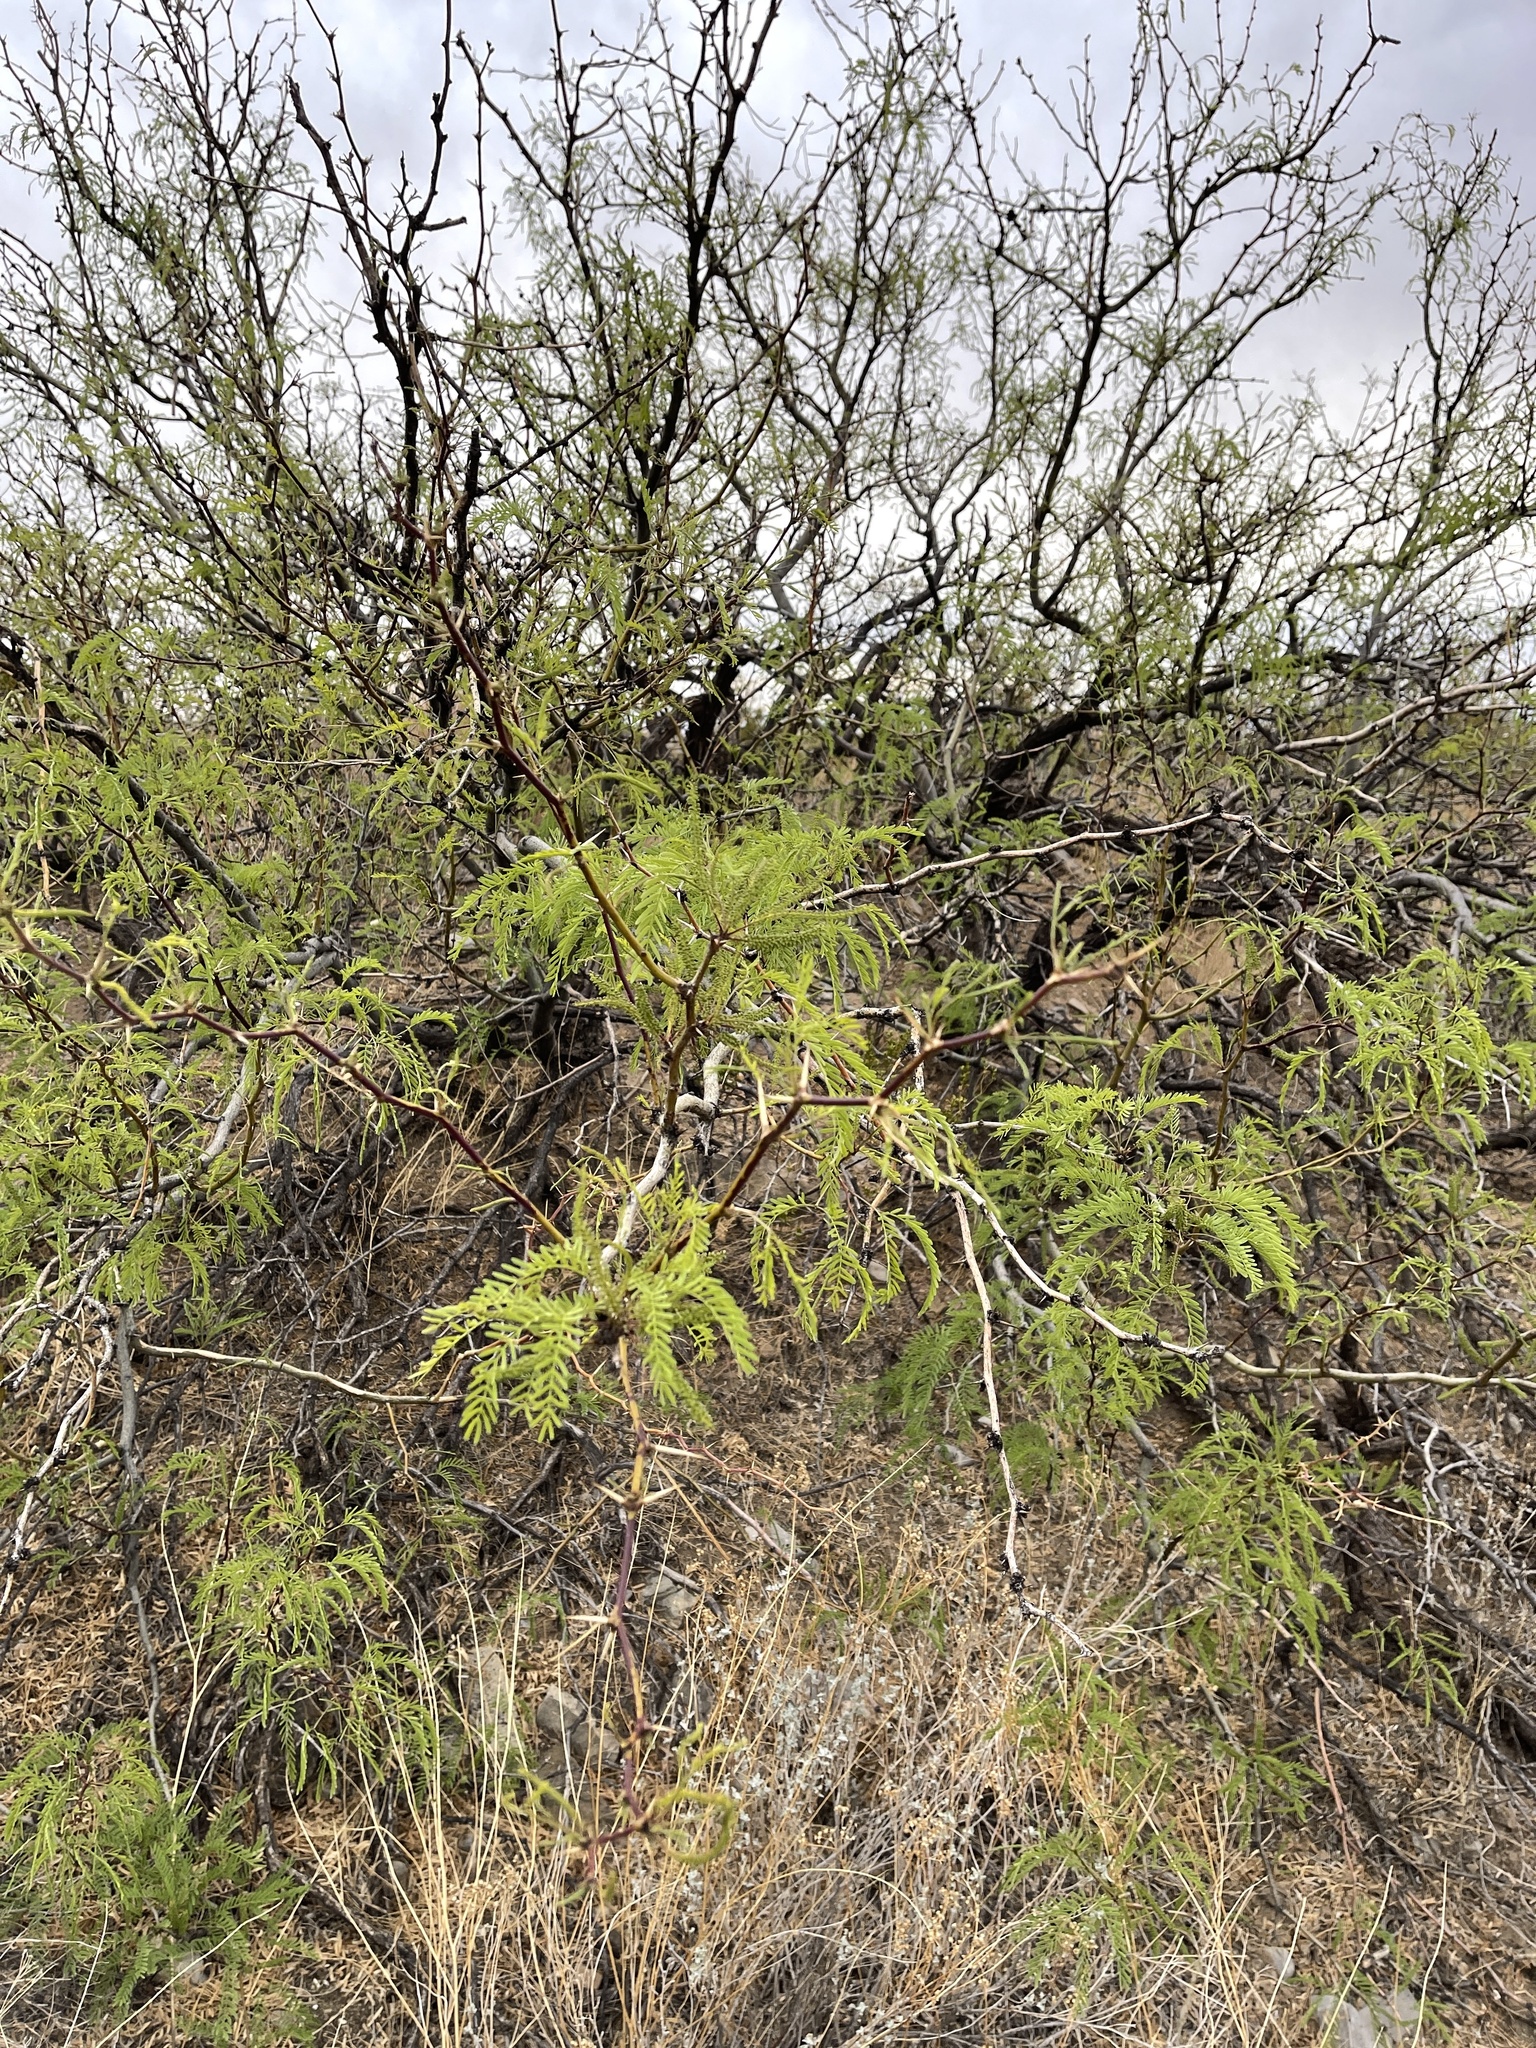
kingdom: Plantae
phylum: Tracheophyta
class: Magnoliopsida
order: Fabales
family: Fabaceae
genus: Prosopis
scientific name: Prosopis glandulosa
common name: Honey mesquite
